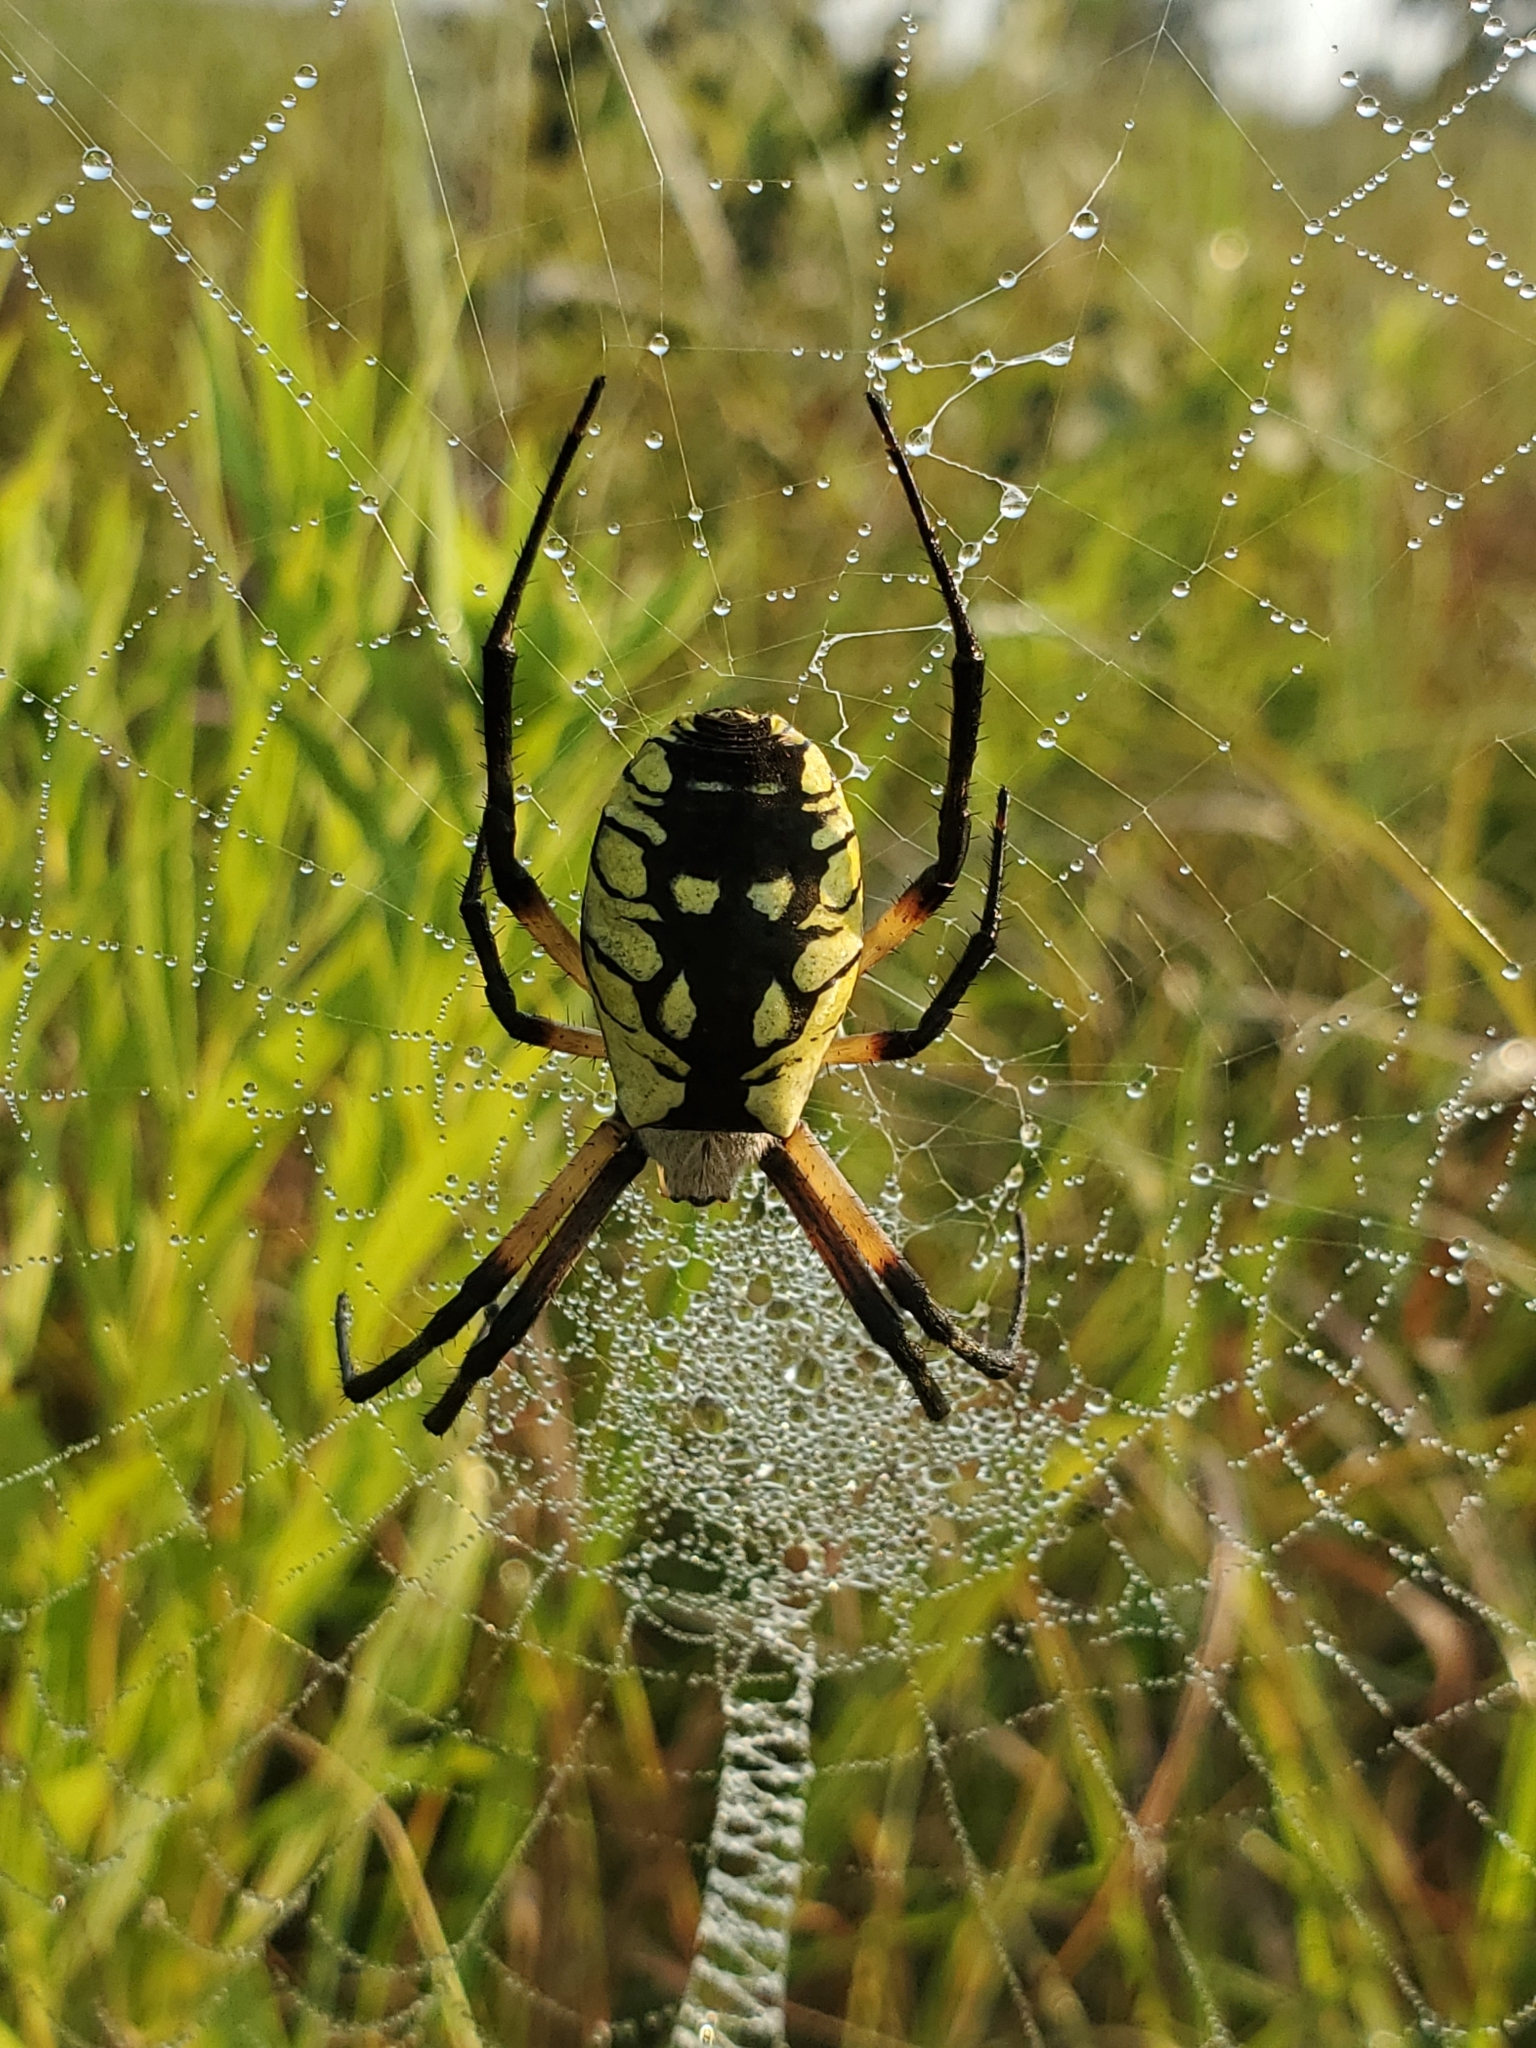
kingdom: Animalia
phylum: Arthropoda
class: Arachnida
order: Araneae
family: Araneidae
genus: Argiope
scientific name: Argiope aurantia
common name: Orb weavers
